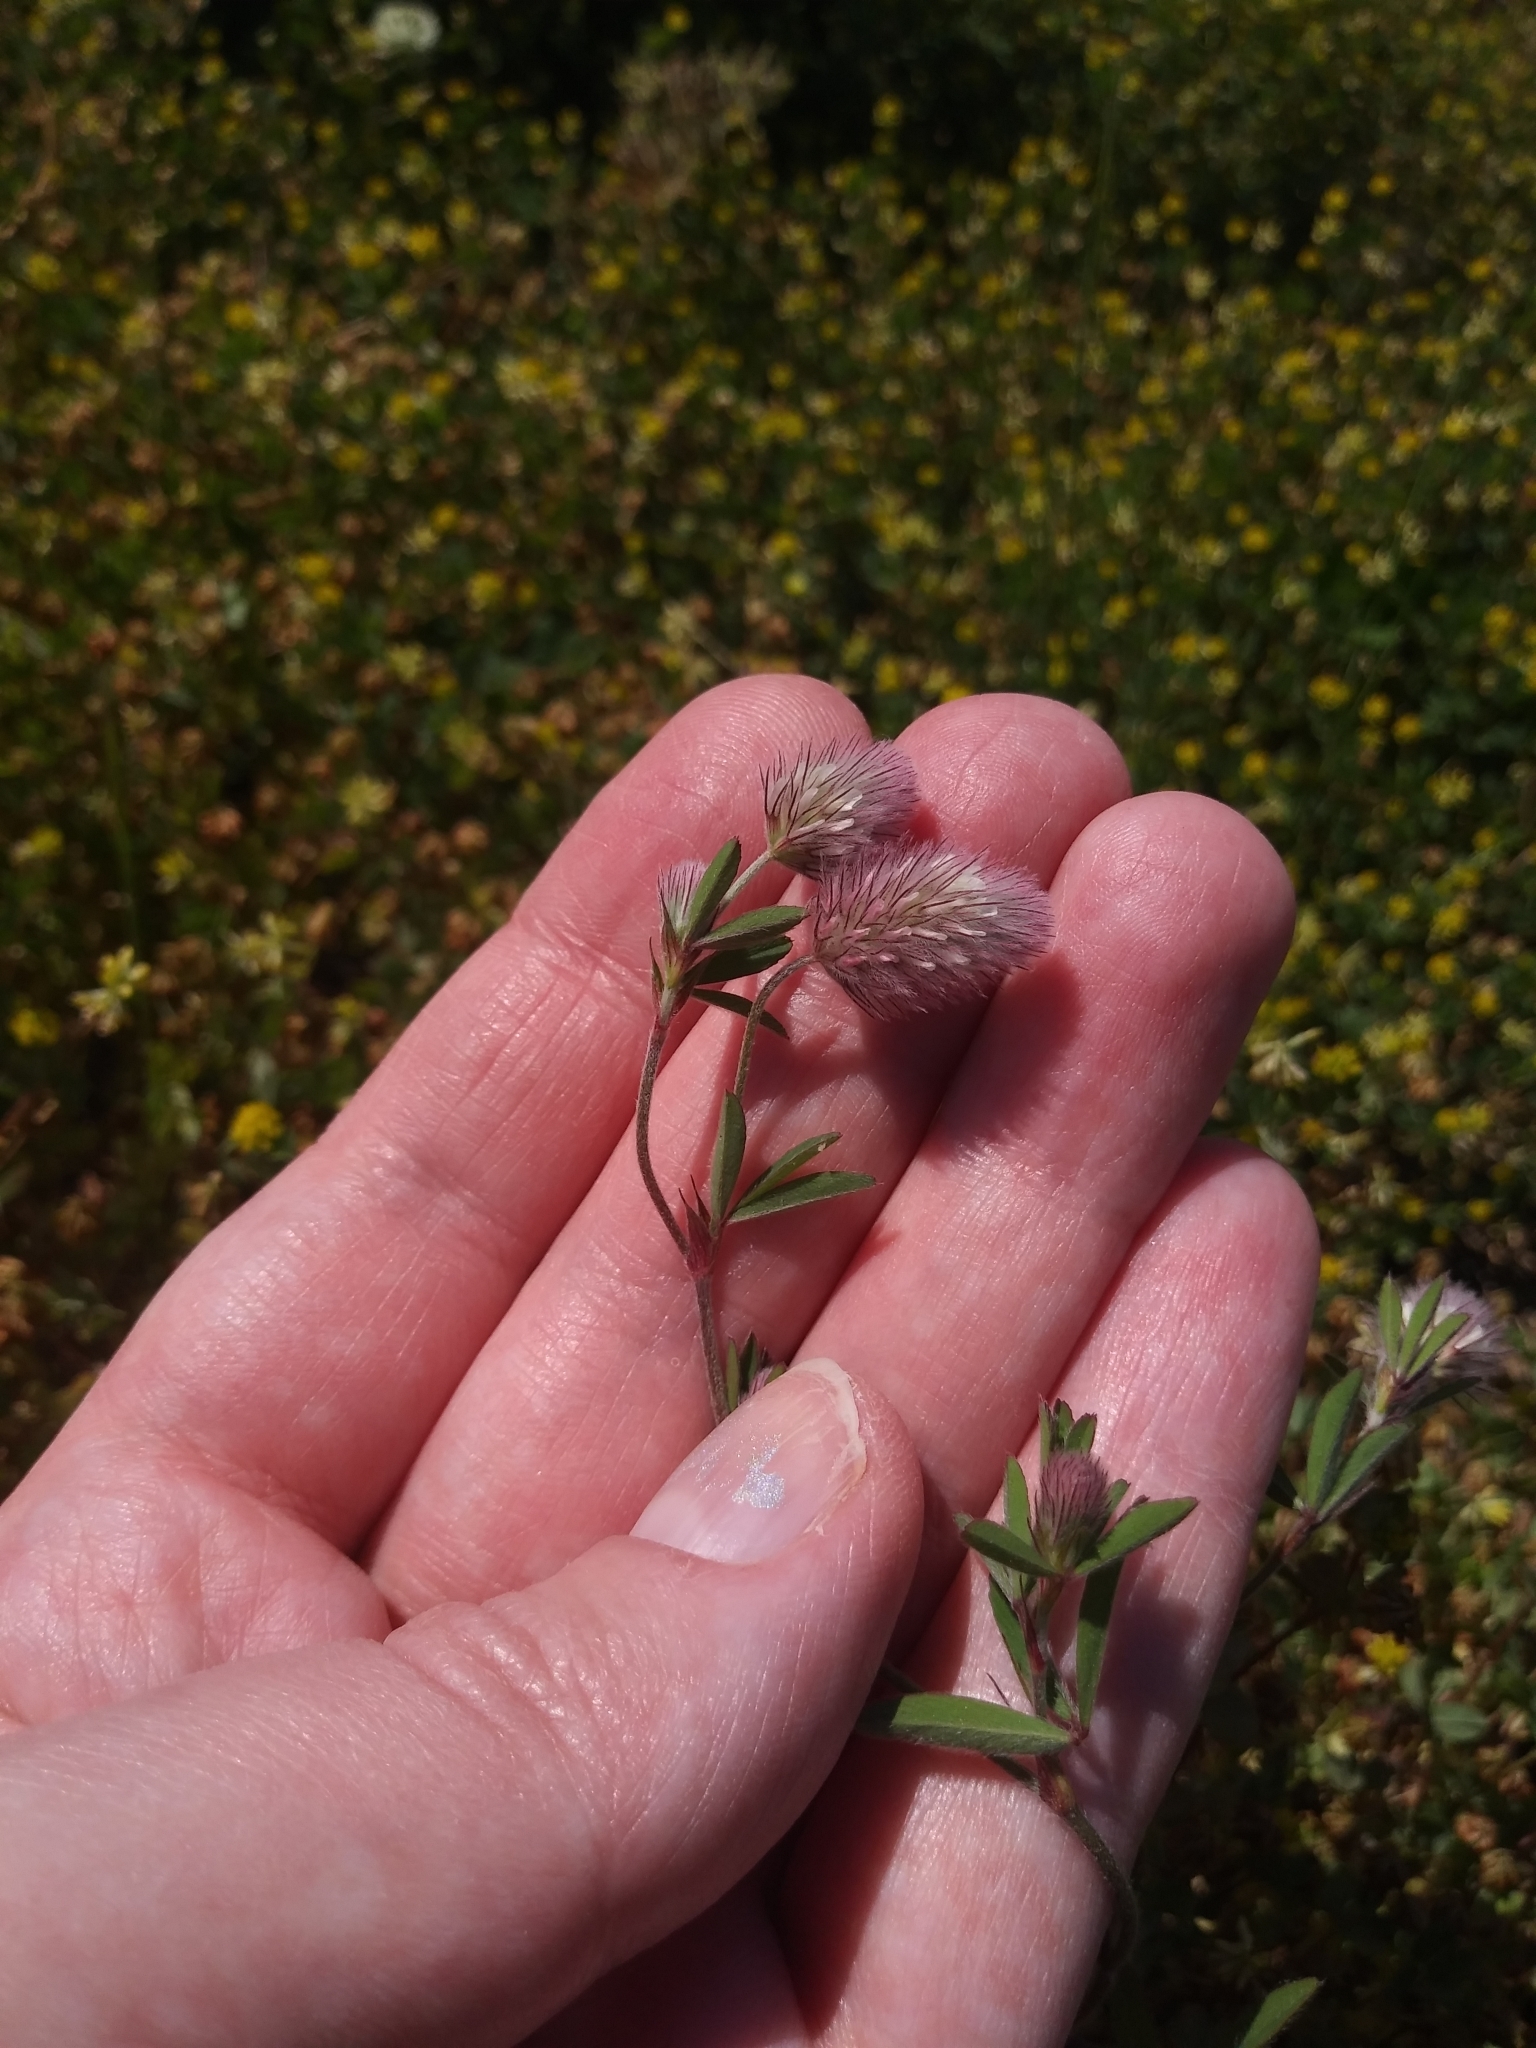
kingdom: Plantae
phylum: Tracheophyta
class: Magnoliopsida
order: Fabales
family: Fabaceae
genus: Trifolium
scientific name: Trifolium arvense
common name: Hare's-foot clover
